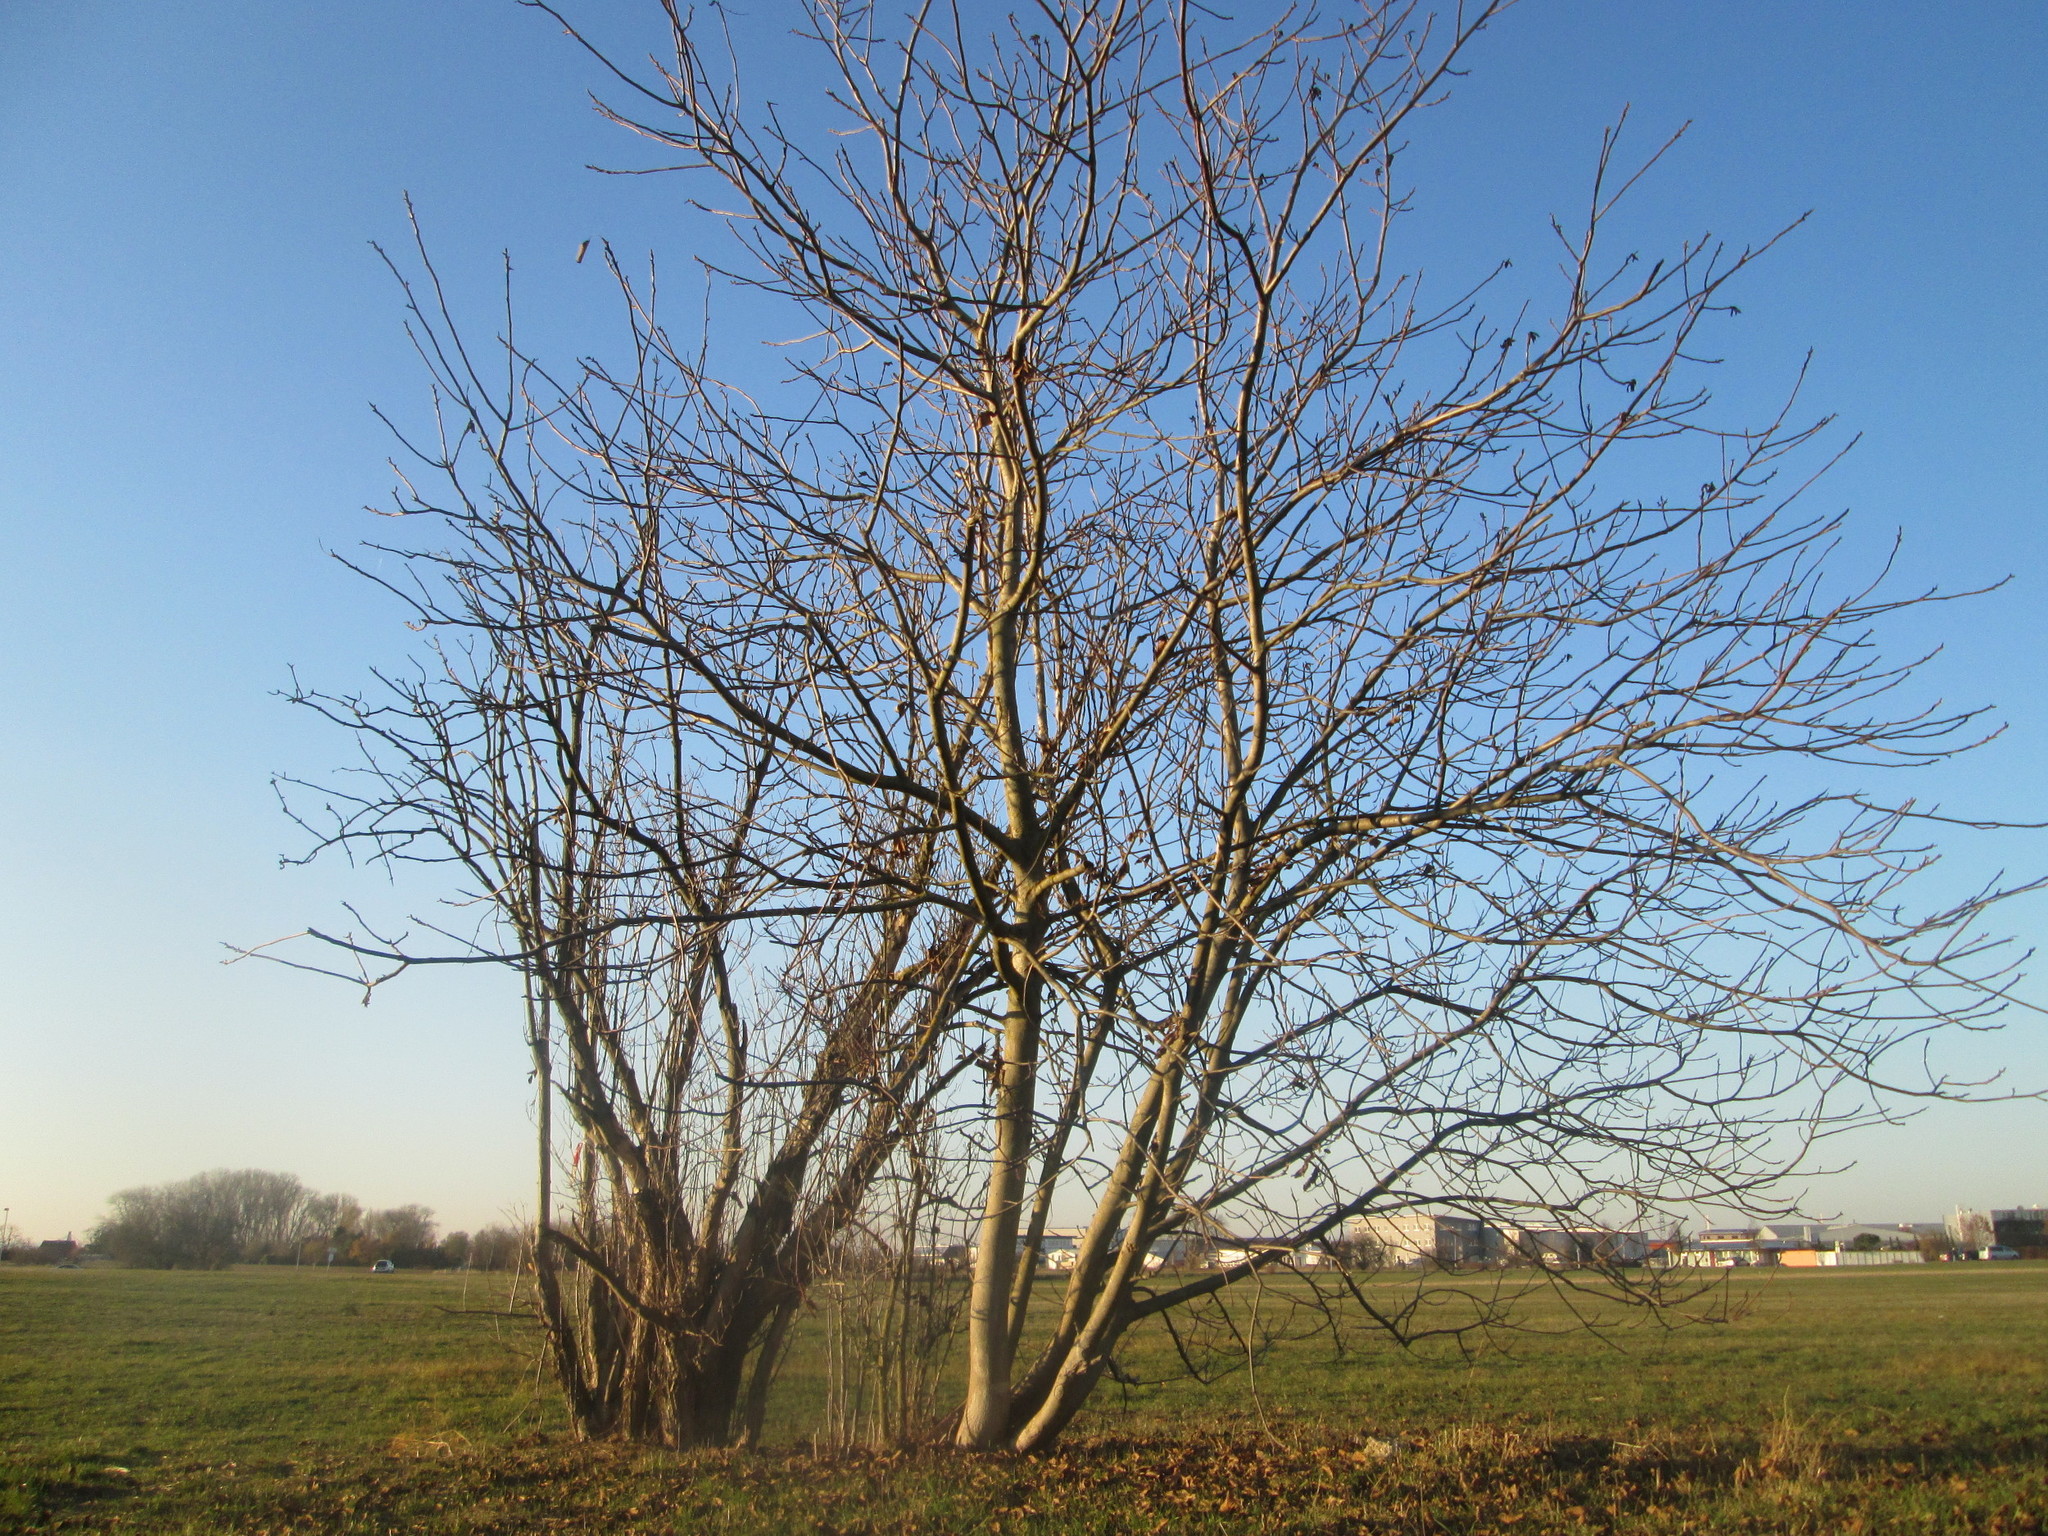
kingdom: Plantae
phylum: Tracheophyta
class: Magnoliopsida
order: Fagales
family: Juglandaceae
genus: Juglans
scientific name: Juglans regia
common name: Walnut
